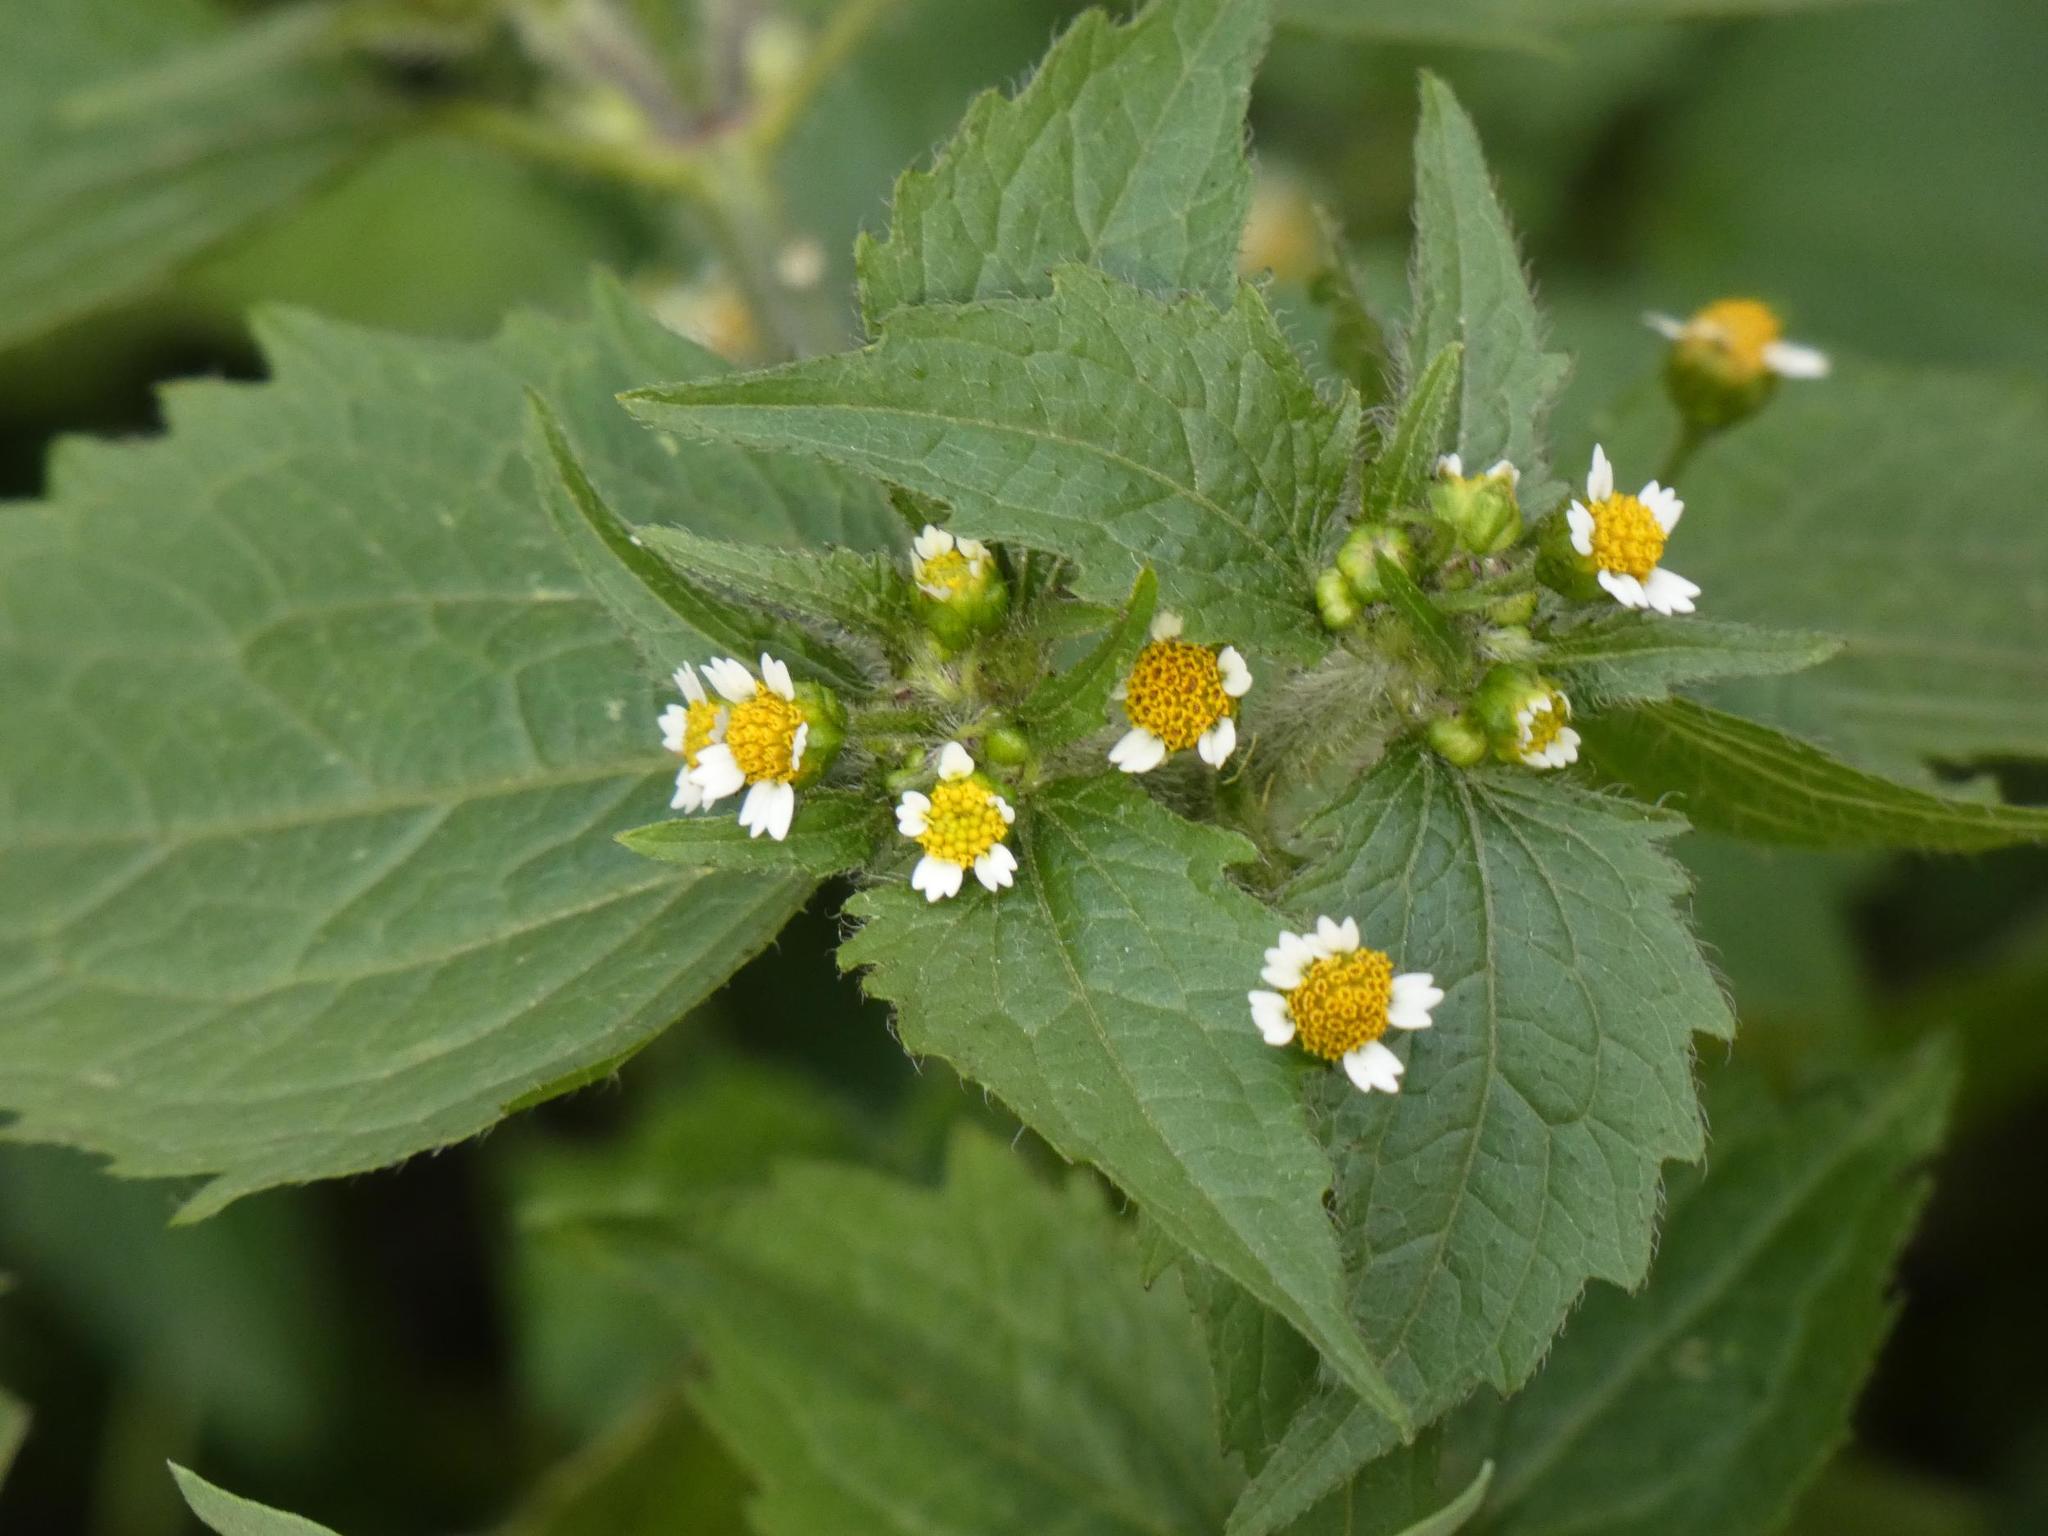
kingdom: Plantae
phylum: Tracheophyta
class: Magnoliopsida
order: Asterales
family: Asteraceae
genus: Galinsoga
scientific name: Galinsoga quadriradiata
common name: Shaggy soldier
